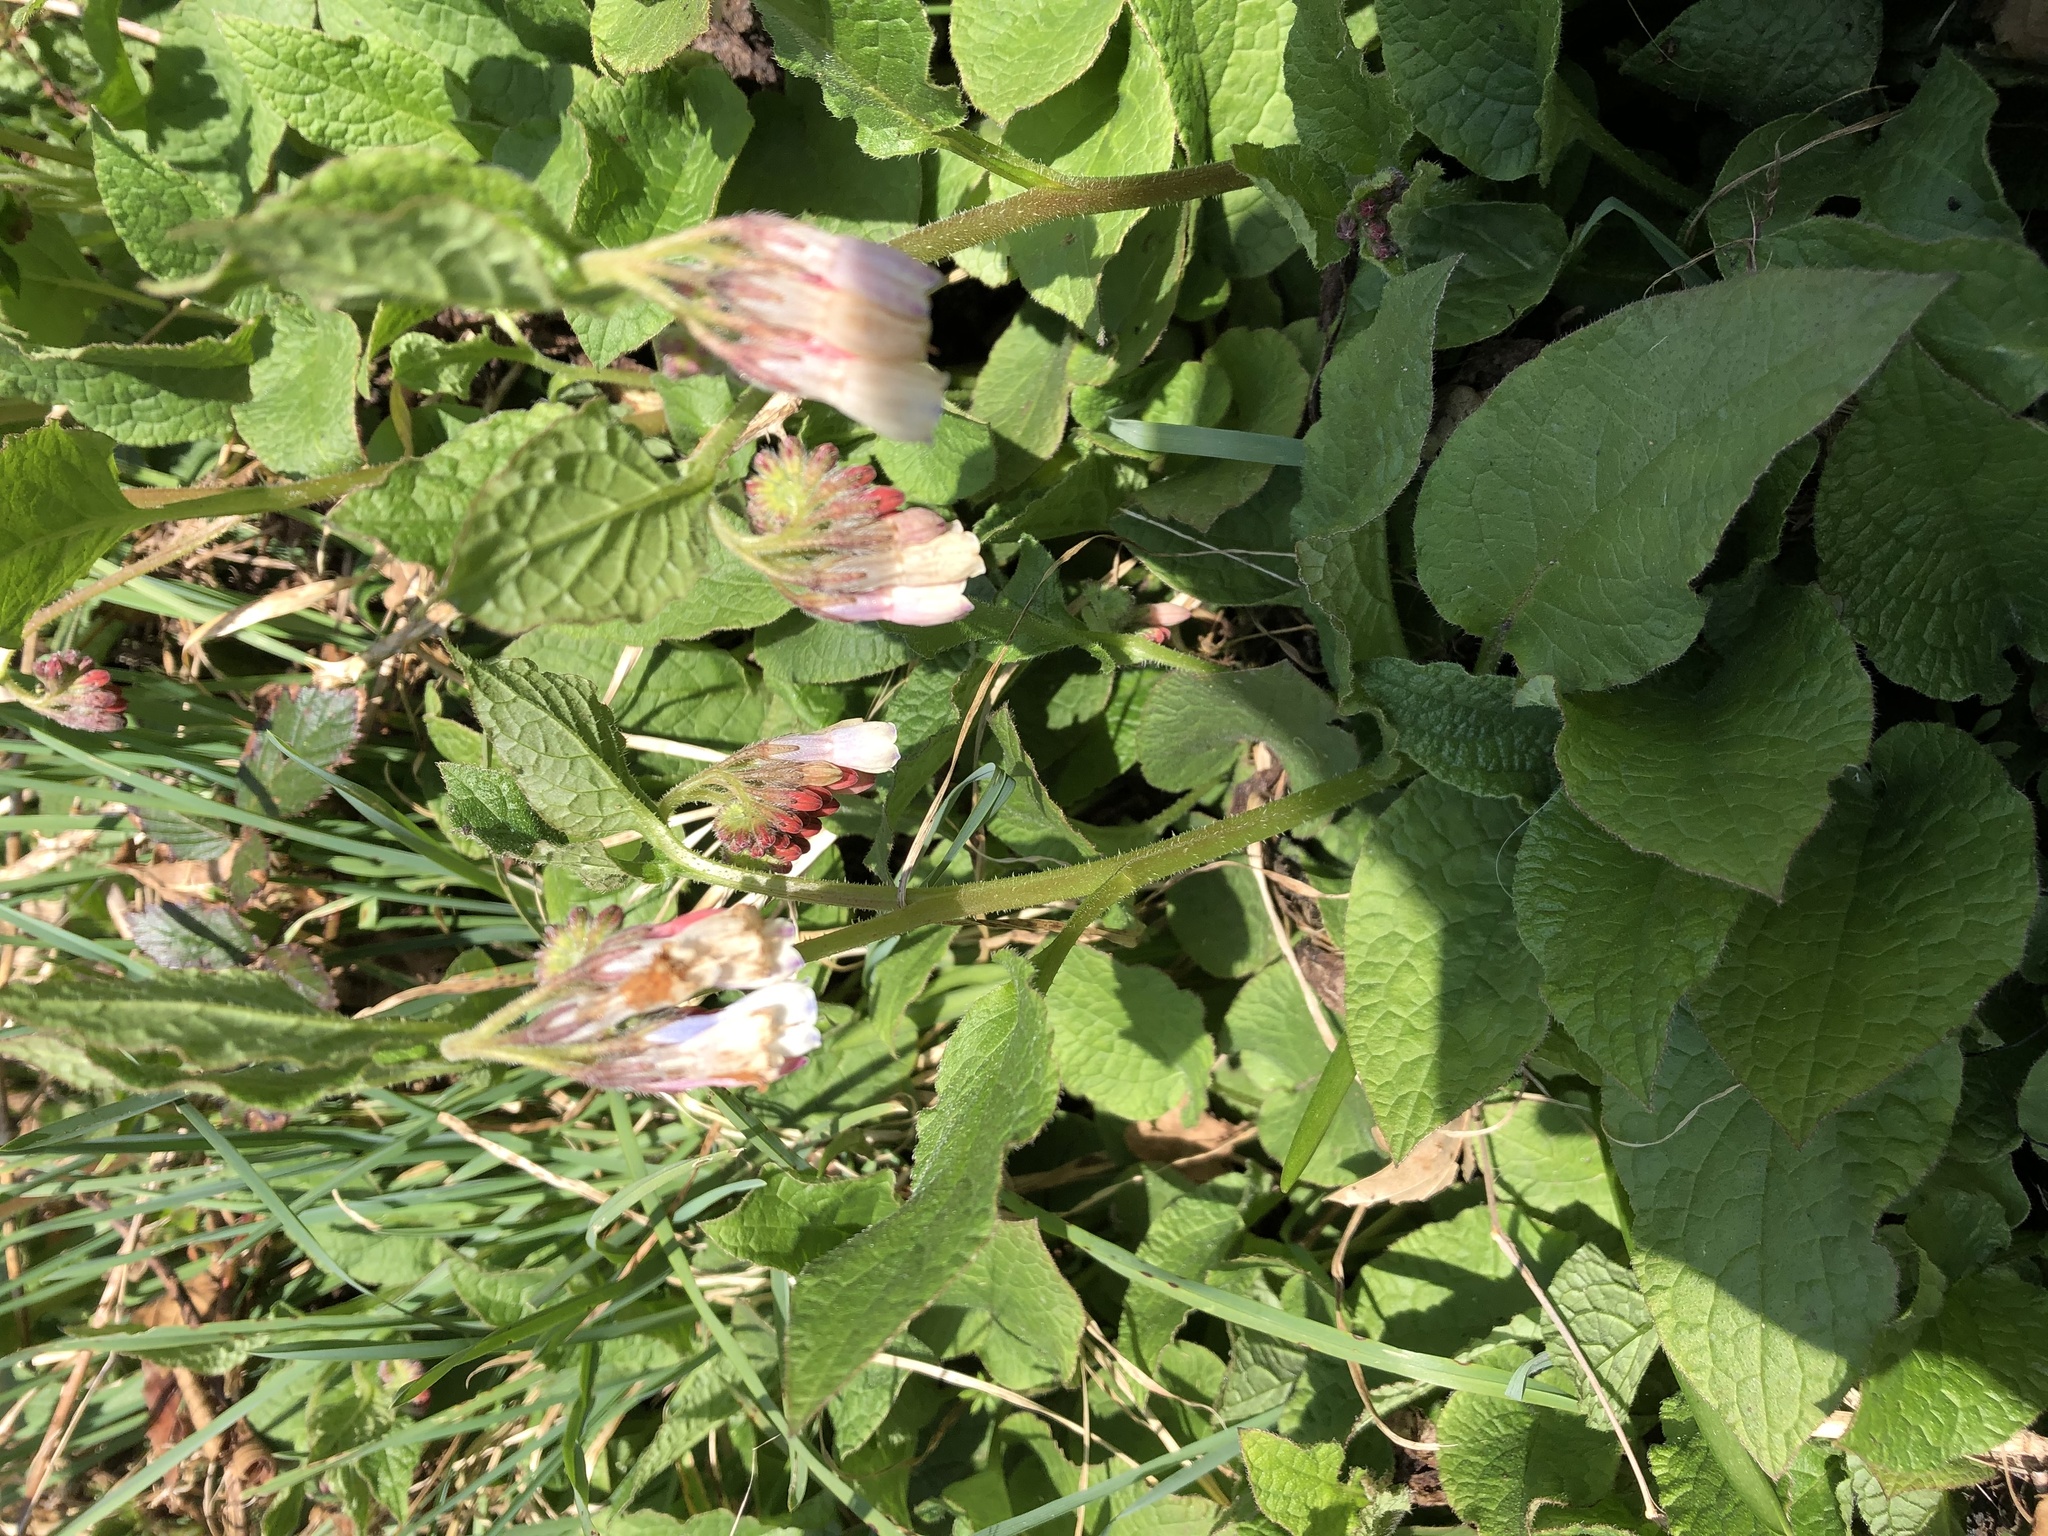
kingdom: Plantae
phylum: Tracheophyta
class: Magnoliopsida
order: Boraginales
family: Boraginaceae
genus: Symphytum
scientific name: Symphytum hidcotense
